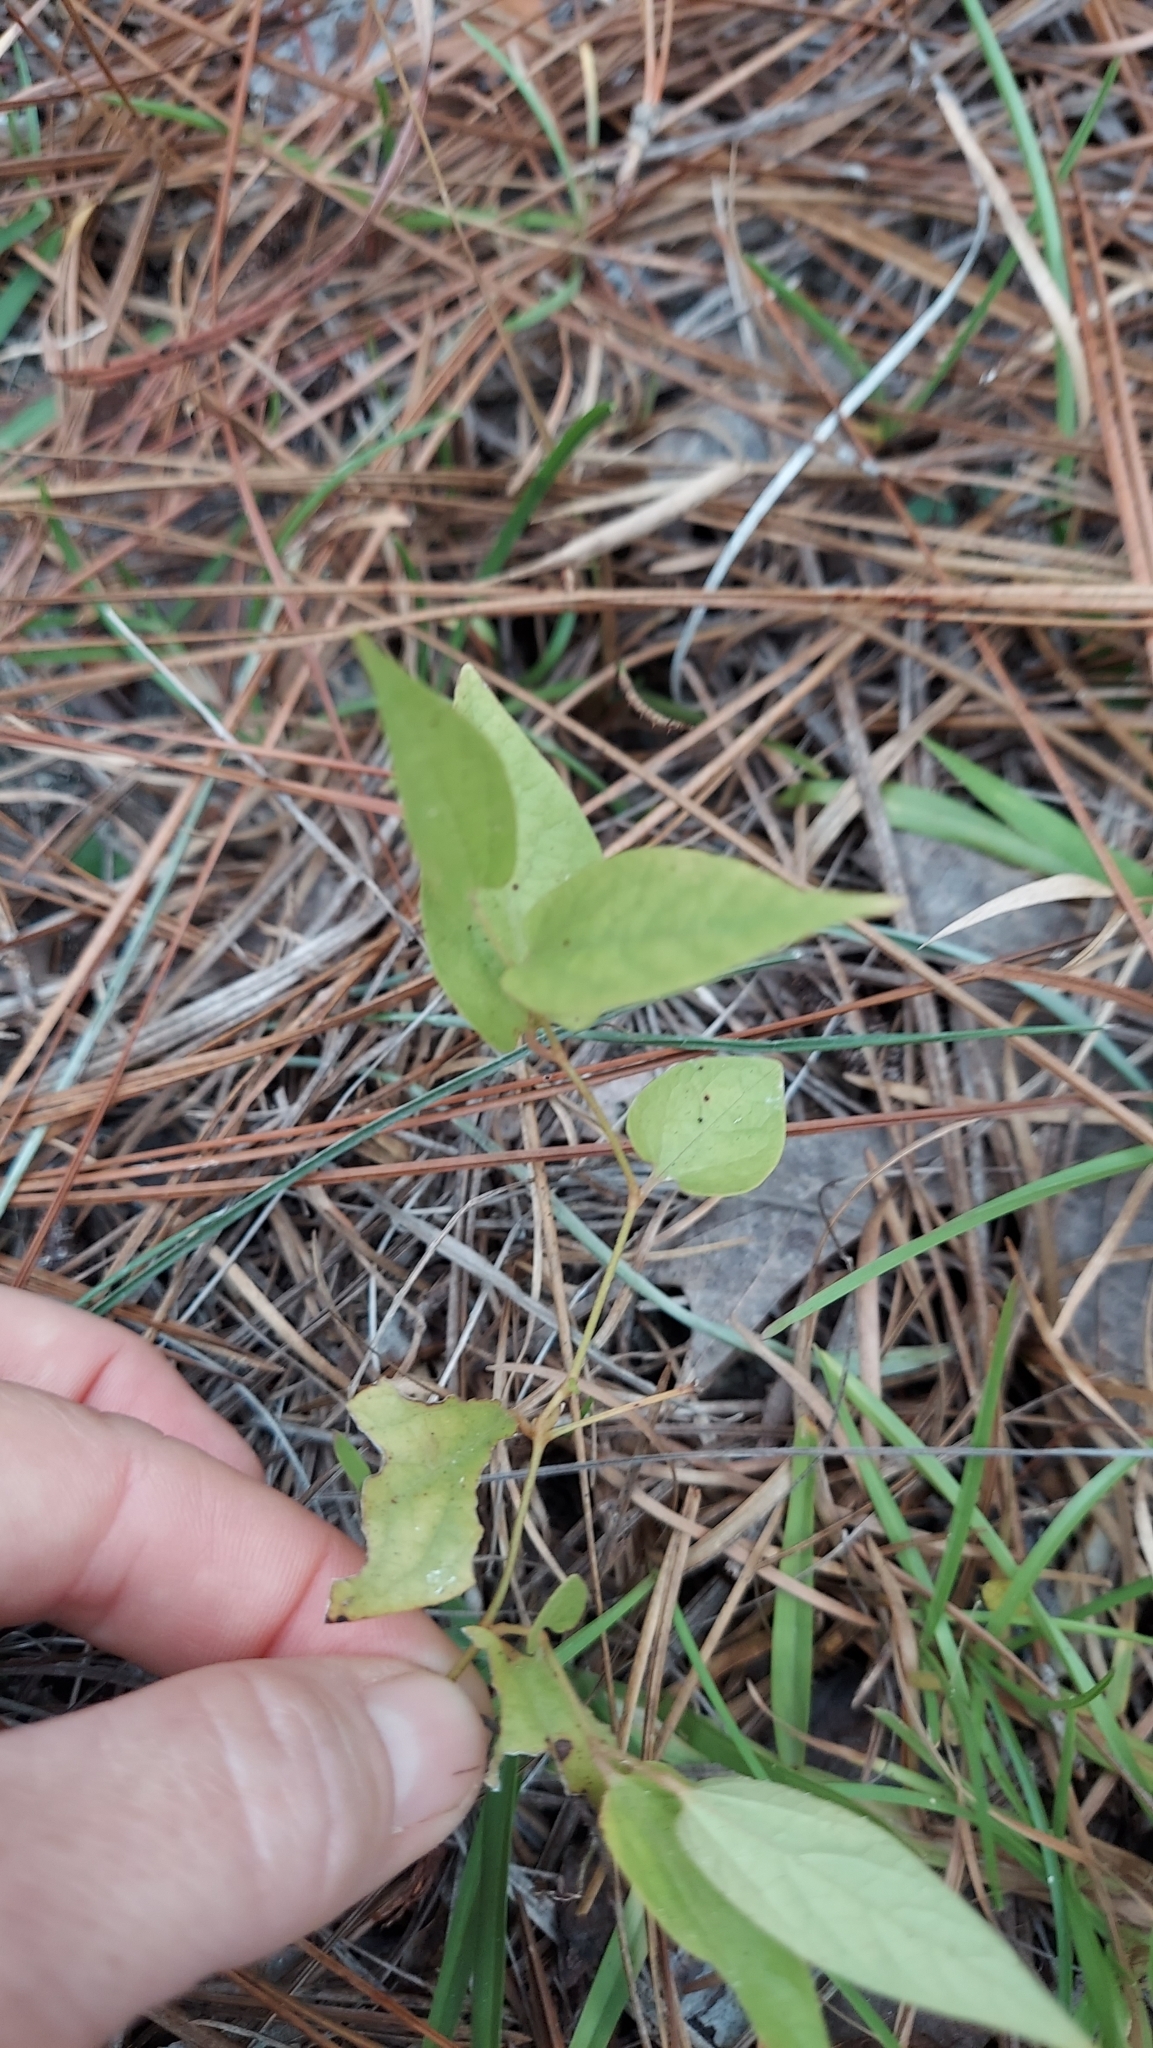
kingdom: Plantae
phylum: Tracheophyta
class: Magnoliopsida
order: Piperales
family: Aristolochiaceae
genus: Endodeca
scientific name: Endodeca serpentaria
